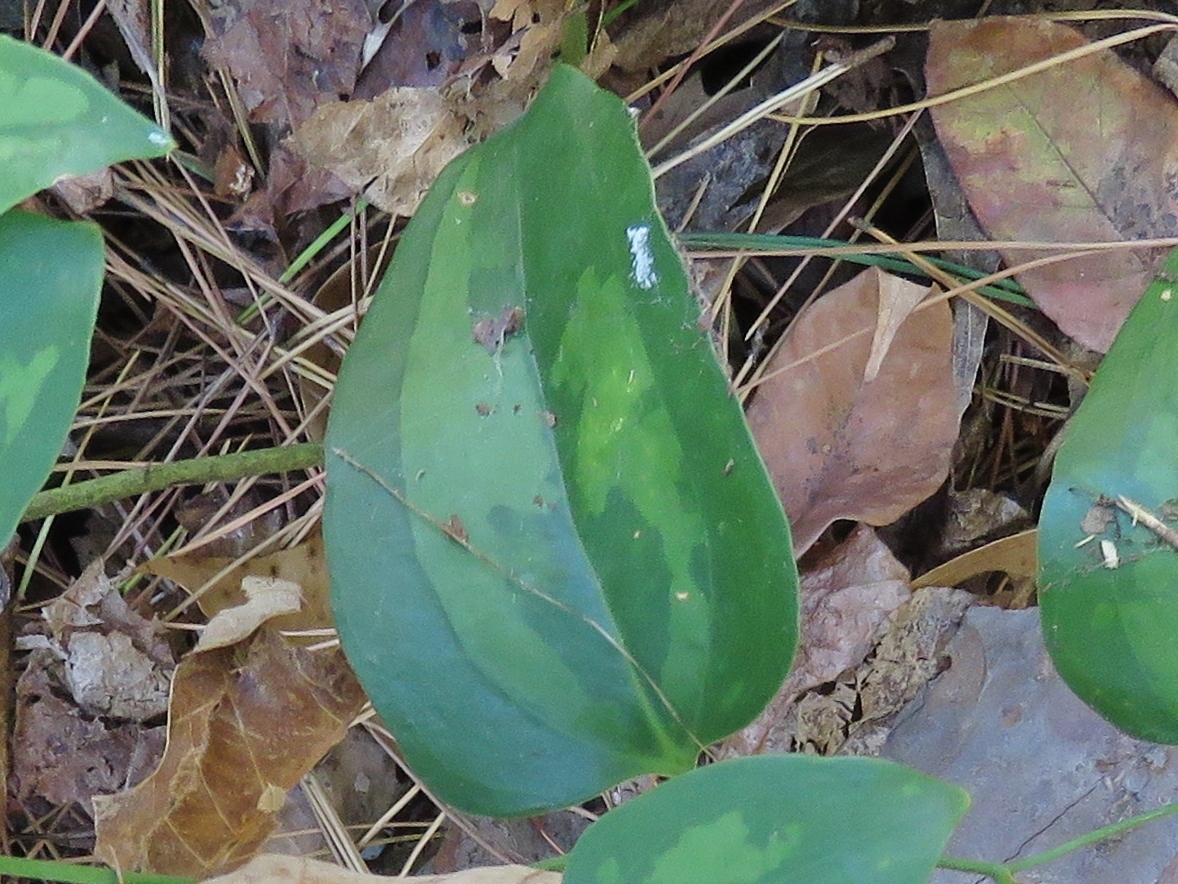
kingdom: Plantae
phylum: Tracheophyta
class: Liliopsida
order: Liliales
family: Smilacaceae
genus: Smilax
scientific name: Smilax glauca
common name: Cat greenbrier
